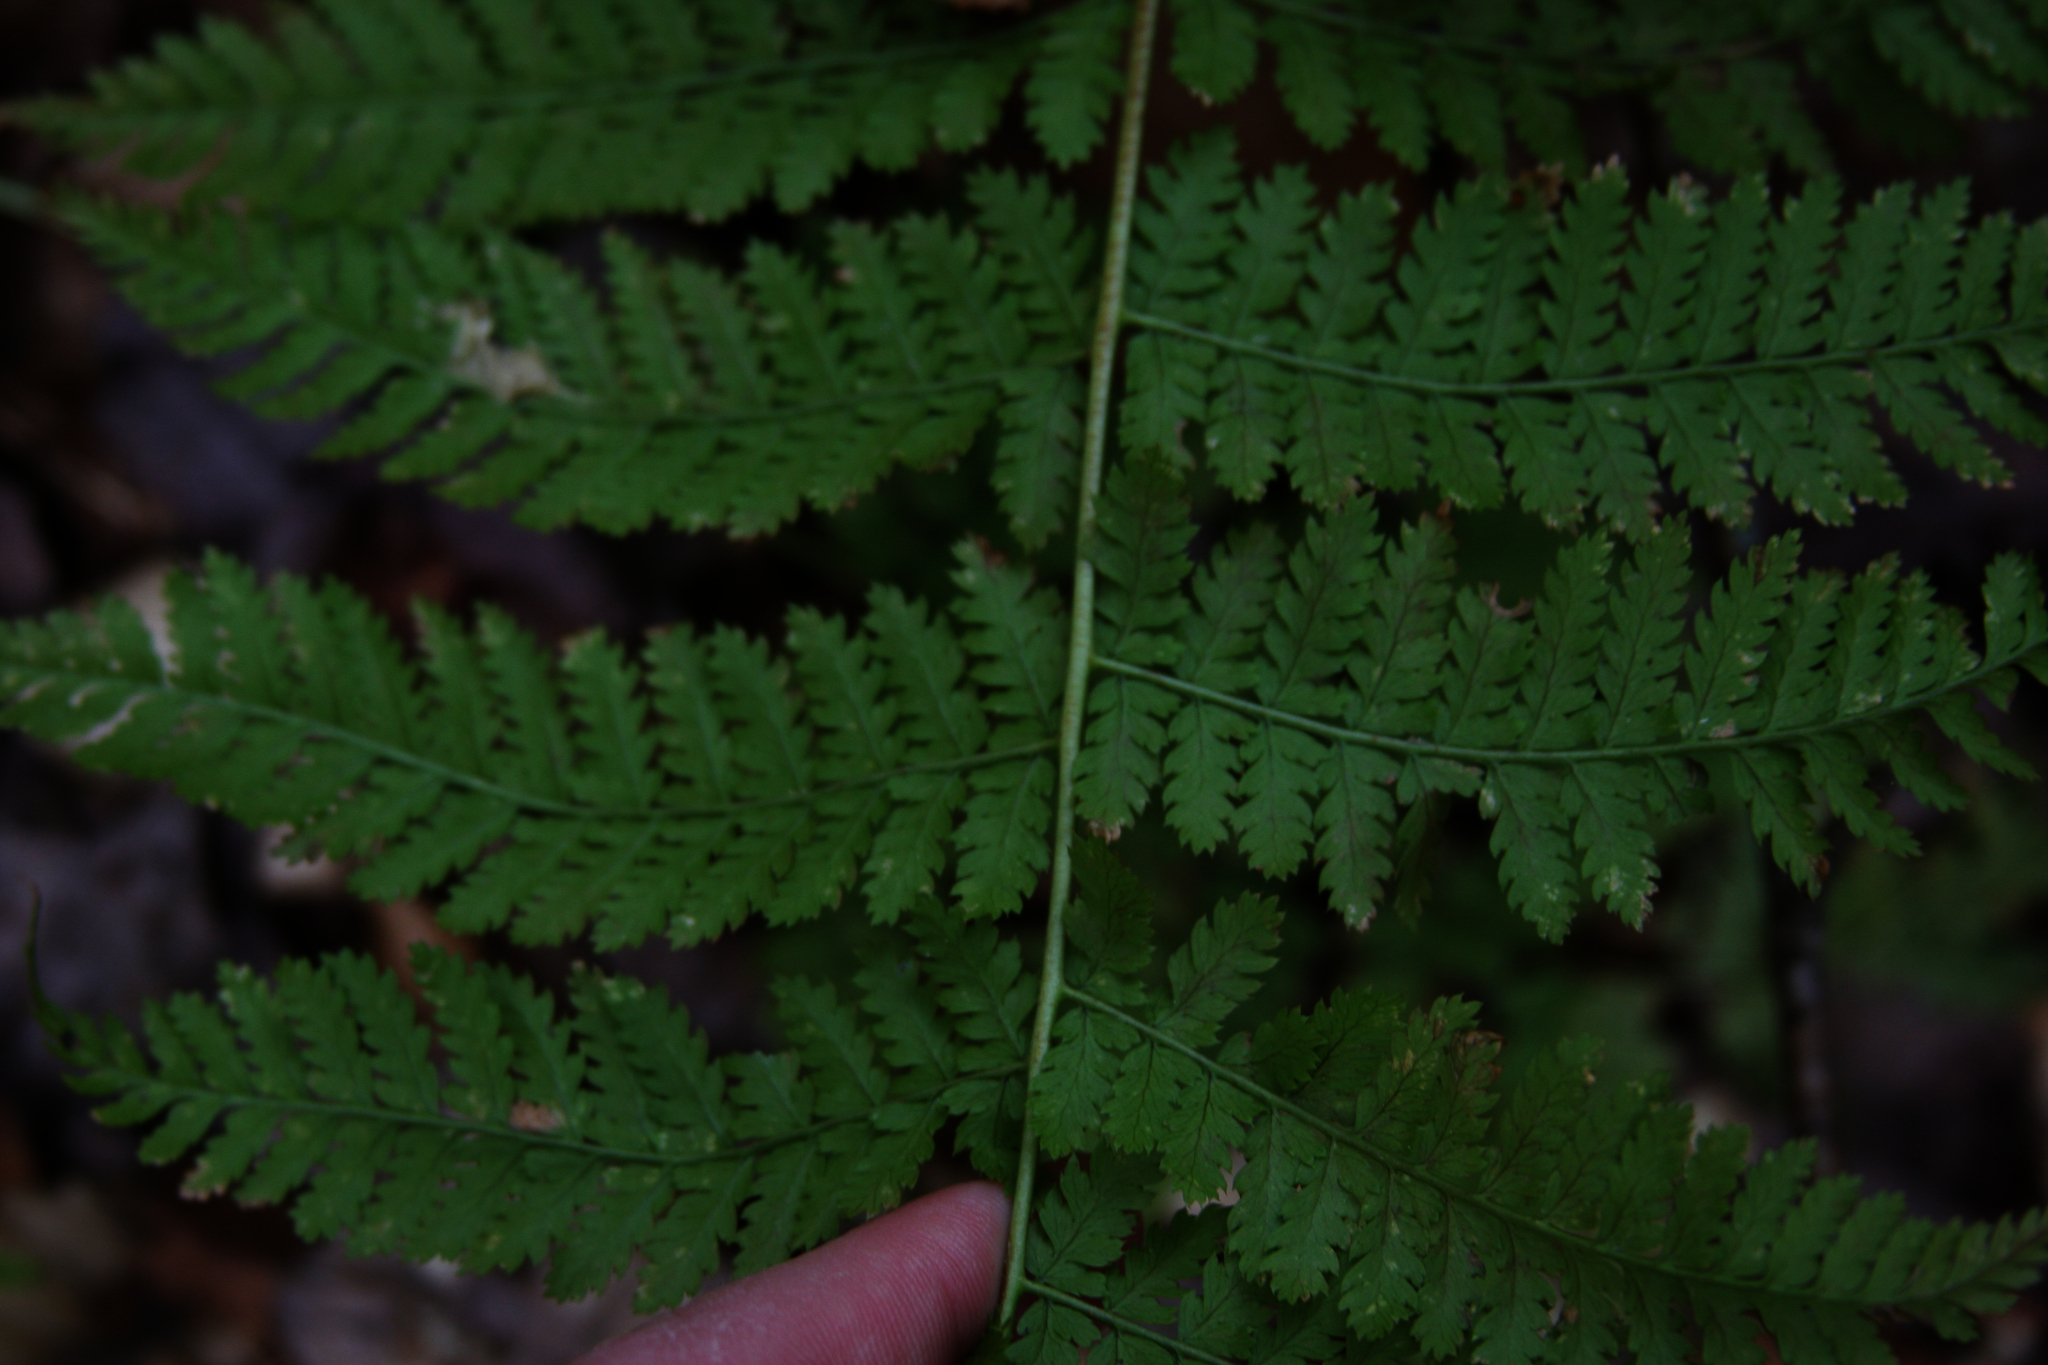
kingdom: Plantae
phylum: Tracheophyta
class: Polypodiopsida
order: Polypodiales
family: Dryopteridaceae
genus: Dryopteris
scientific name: Dryopteris intermedia
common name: Evergreen wood fern
